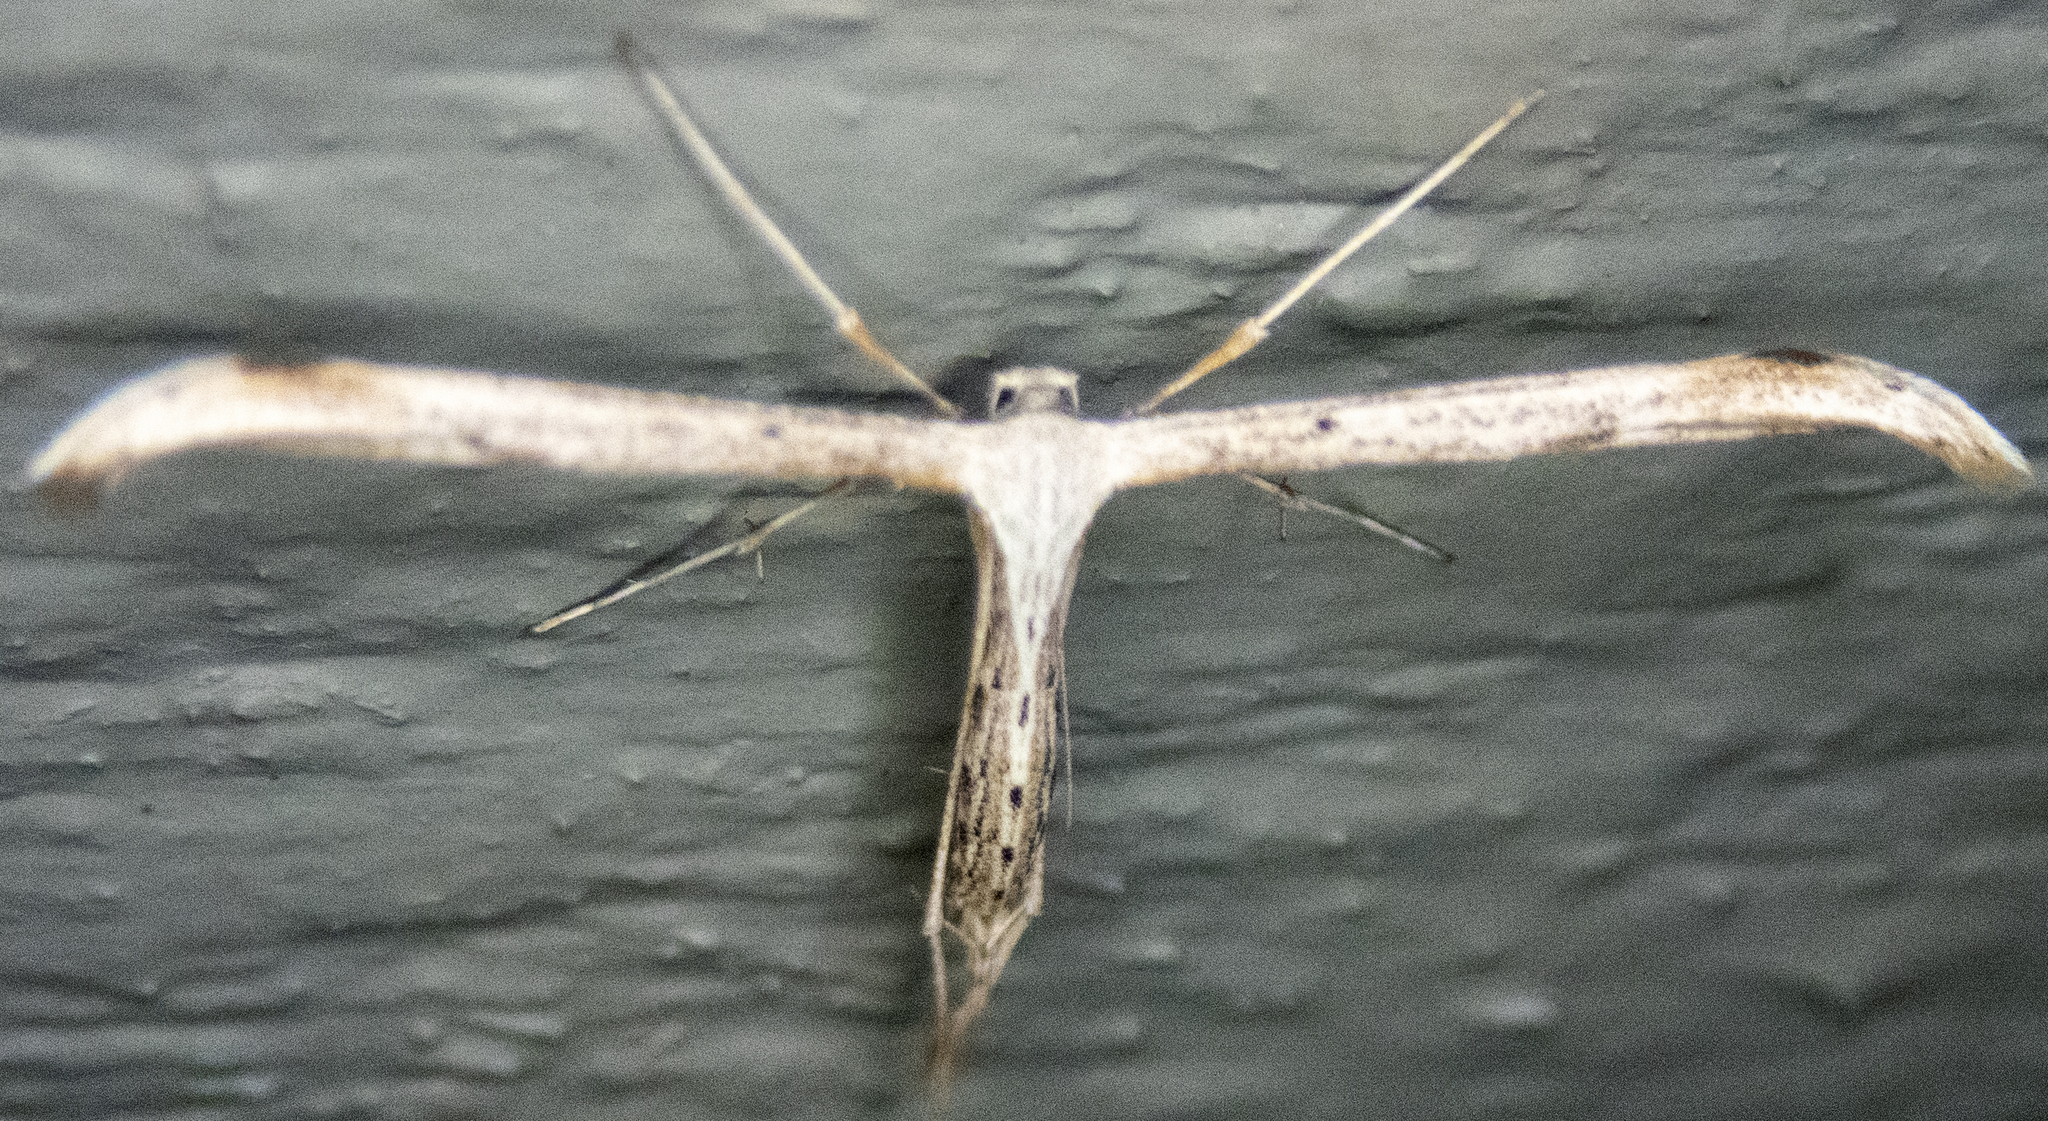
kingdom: Animalia
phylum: Arthropoda
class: Insecta
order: Lepidoptera
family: Pterophoridae
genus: Emmelina
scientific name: Emmelina monodactyla
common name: Common plume
